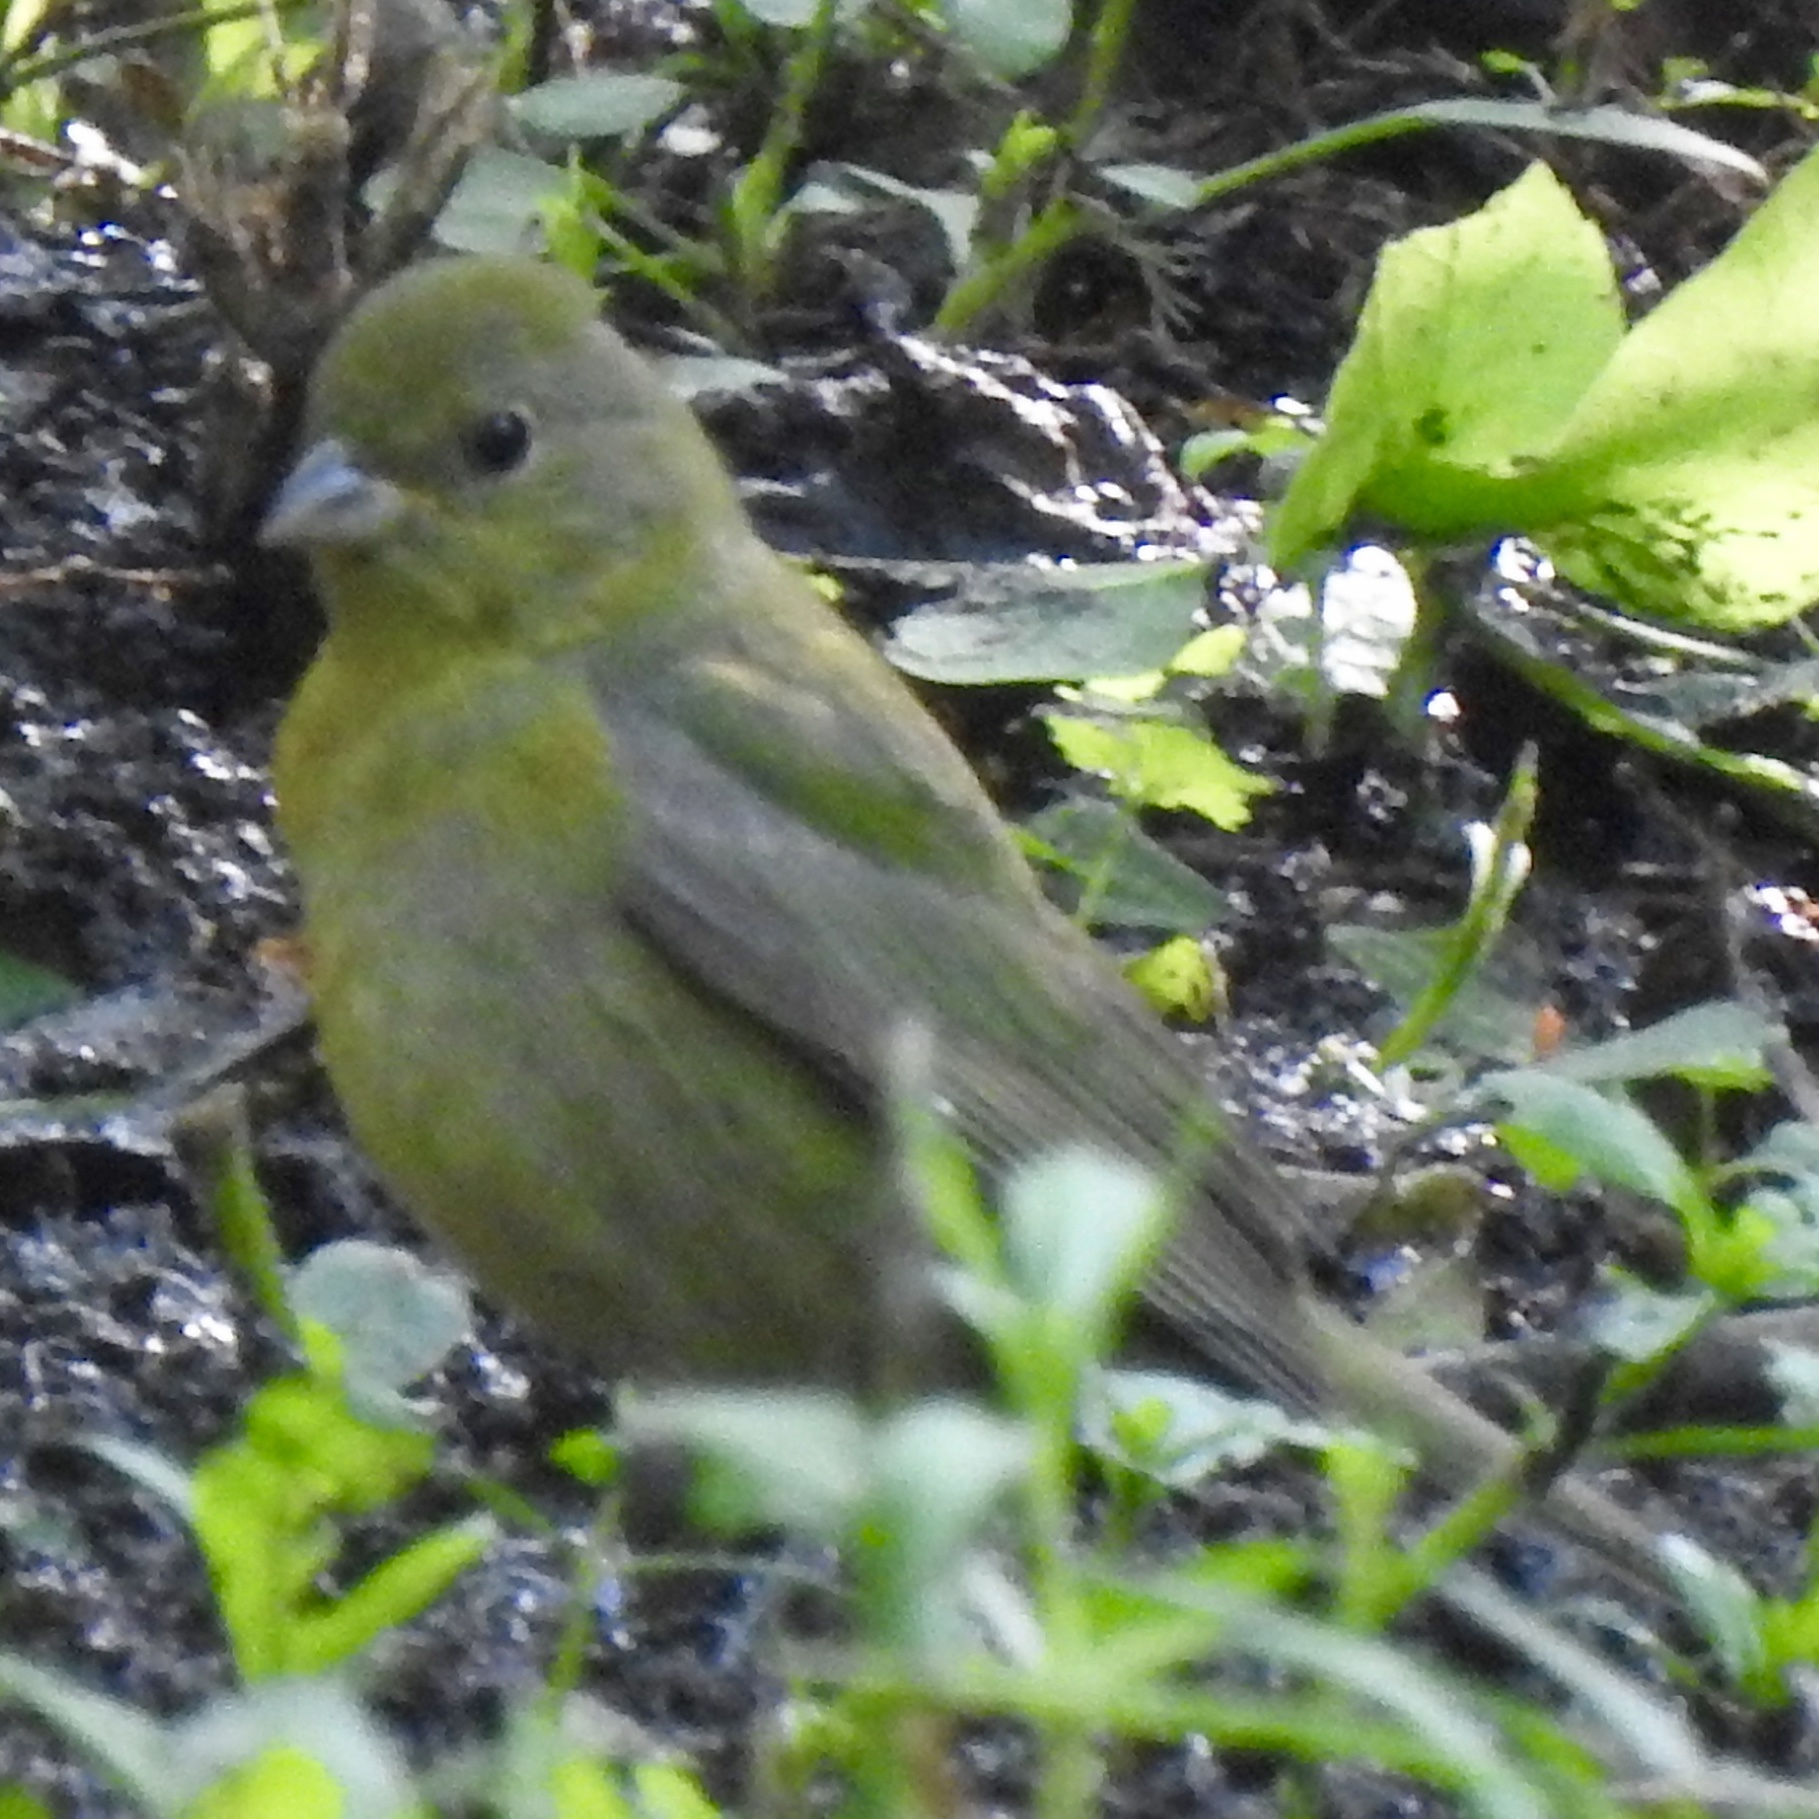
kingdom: Animalia
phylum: Chordata
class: Aves
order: Passeriformes
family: Cardinalidae
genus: Passerina
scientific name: Passerina ciris
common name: Painted bunting
